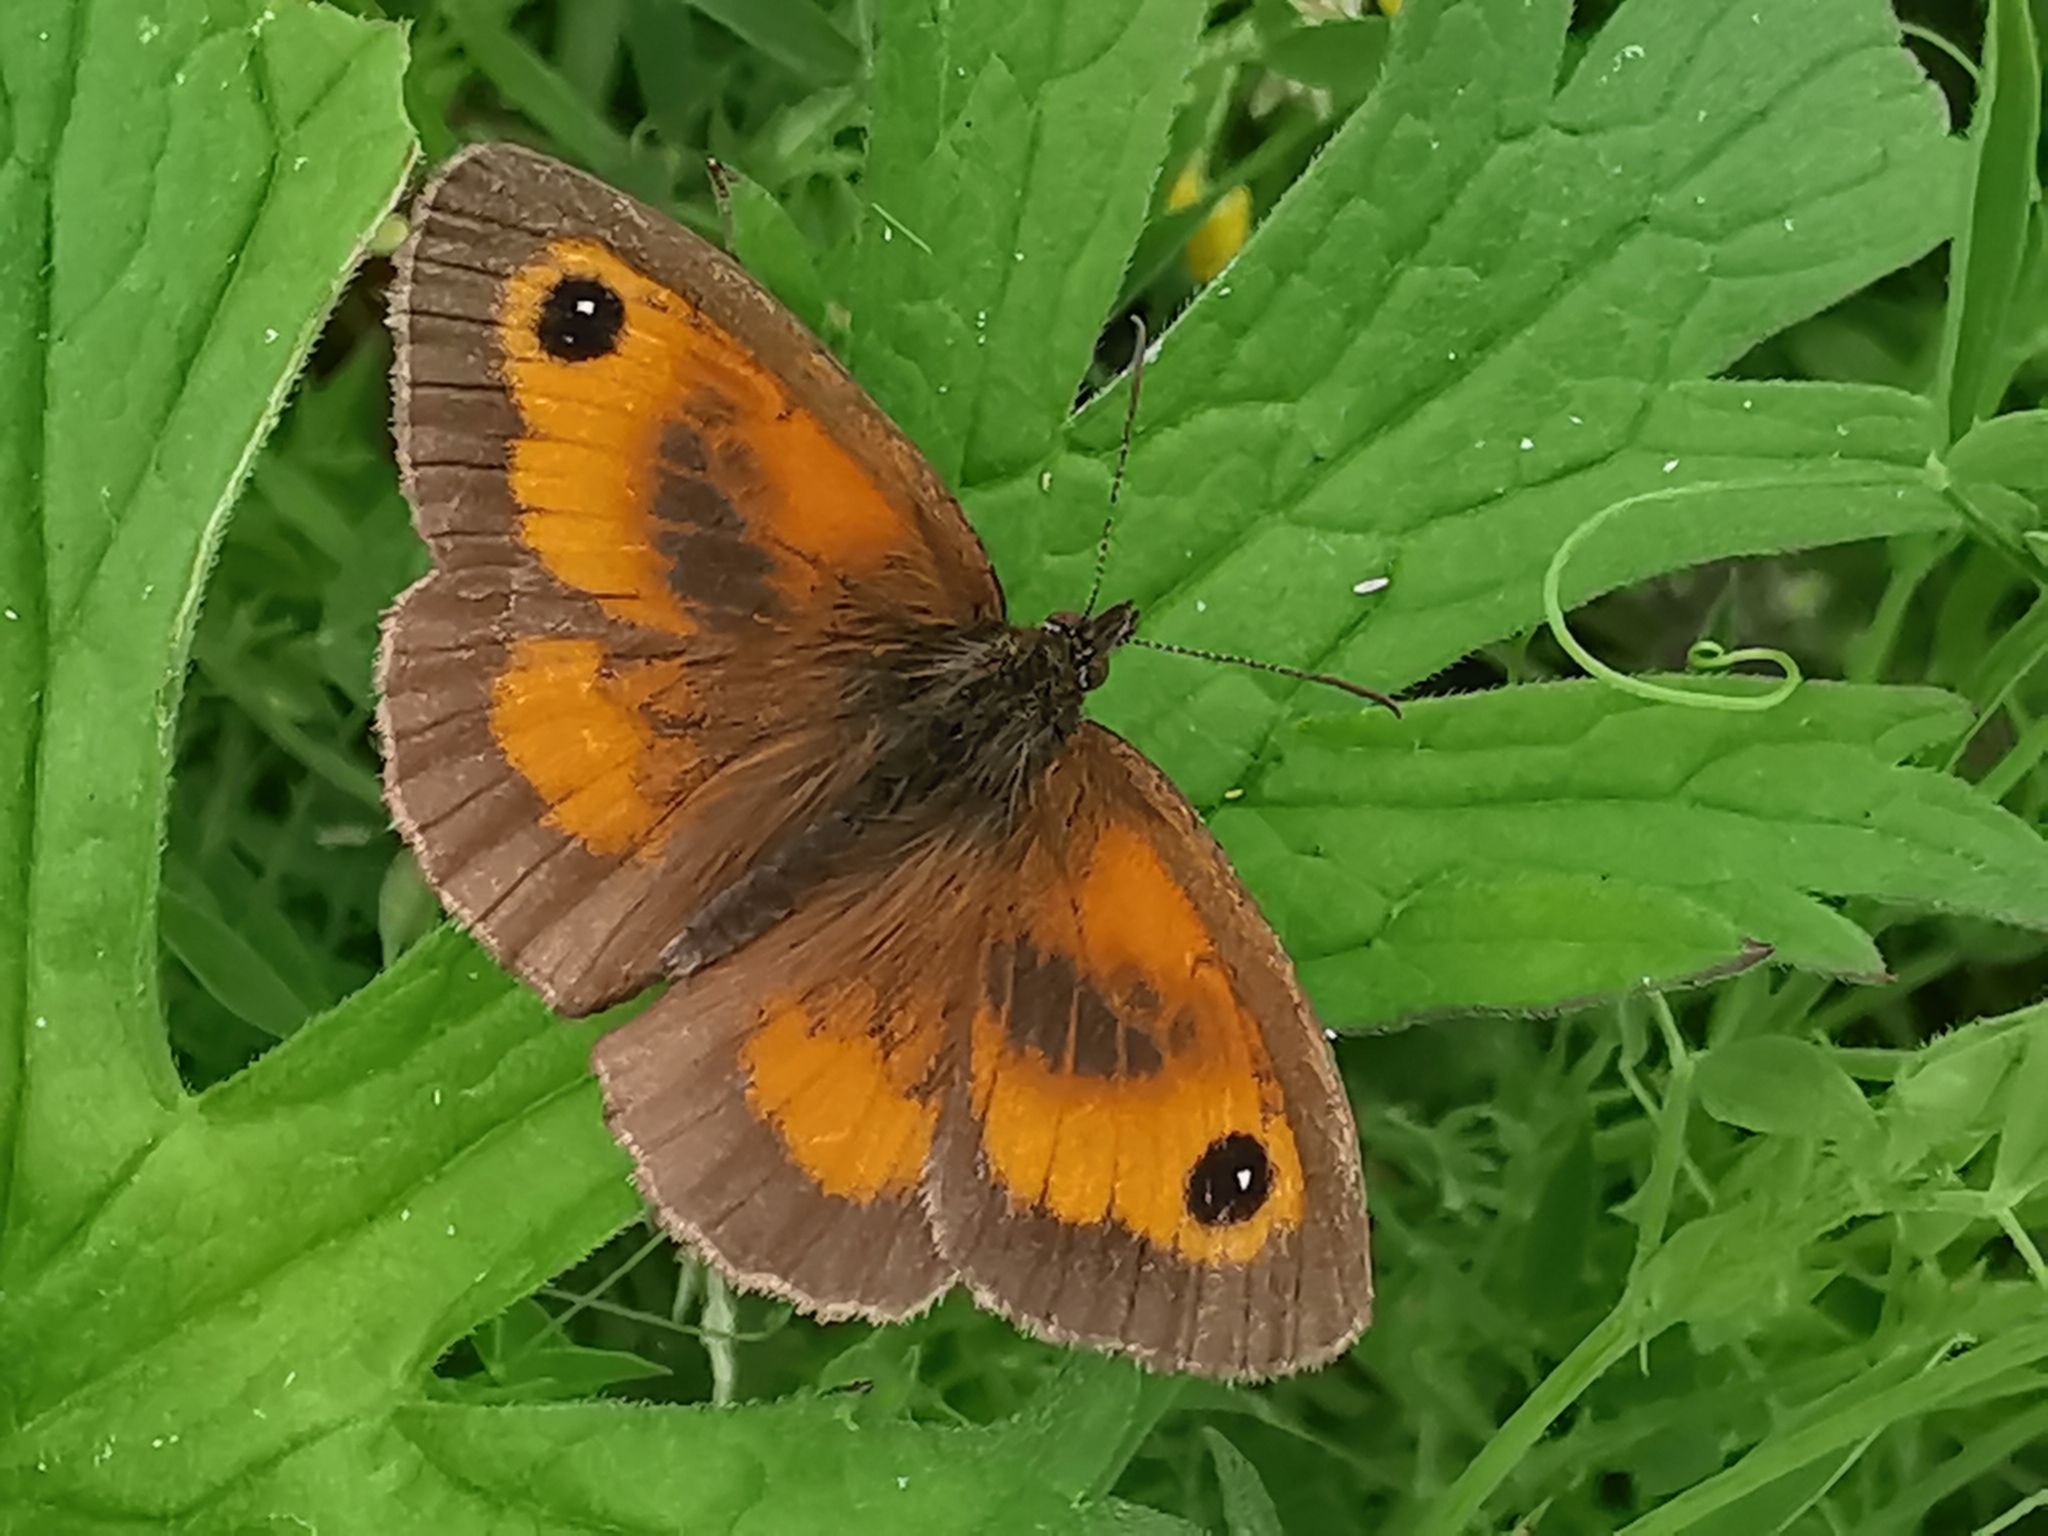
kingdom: Animalia
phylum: Arthropoda
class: Insecta
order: Lepidoptera
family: Nymphalidae
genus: Pyronia
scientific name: Pyronia tithonus
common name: Gatekeeper
